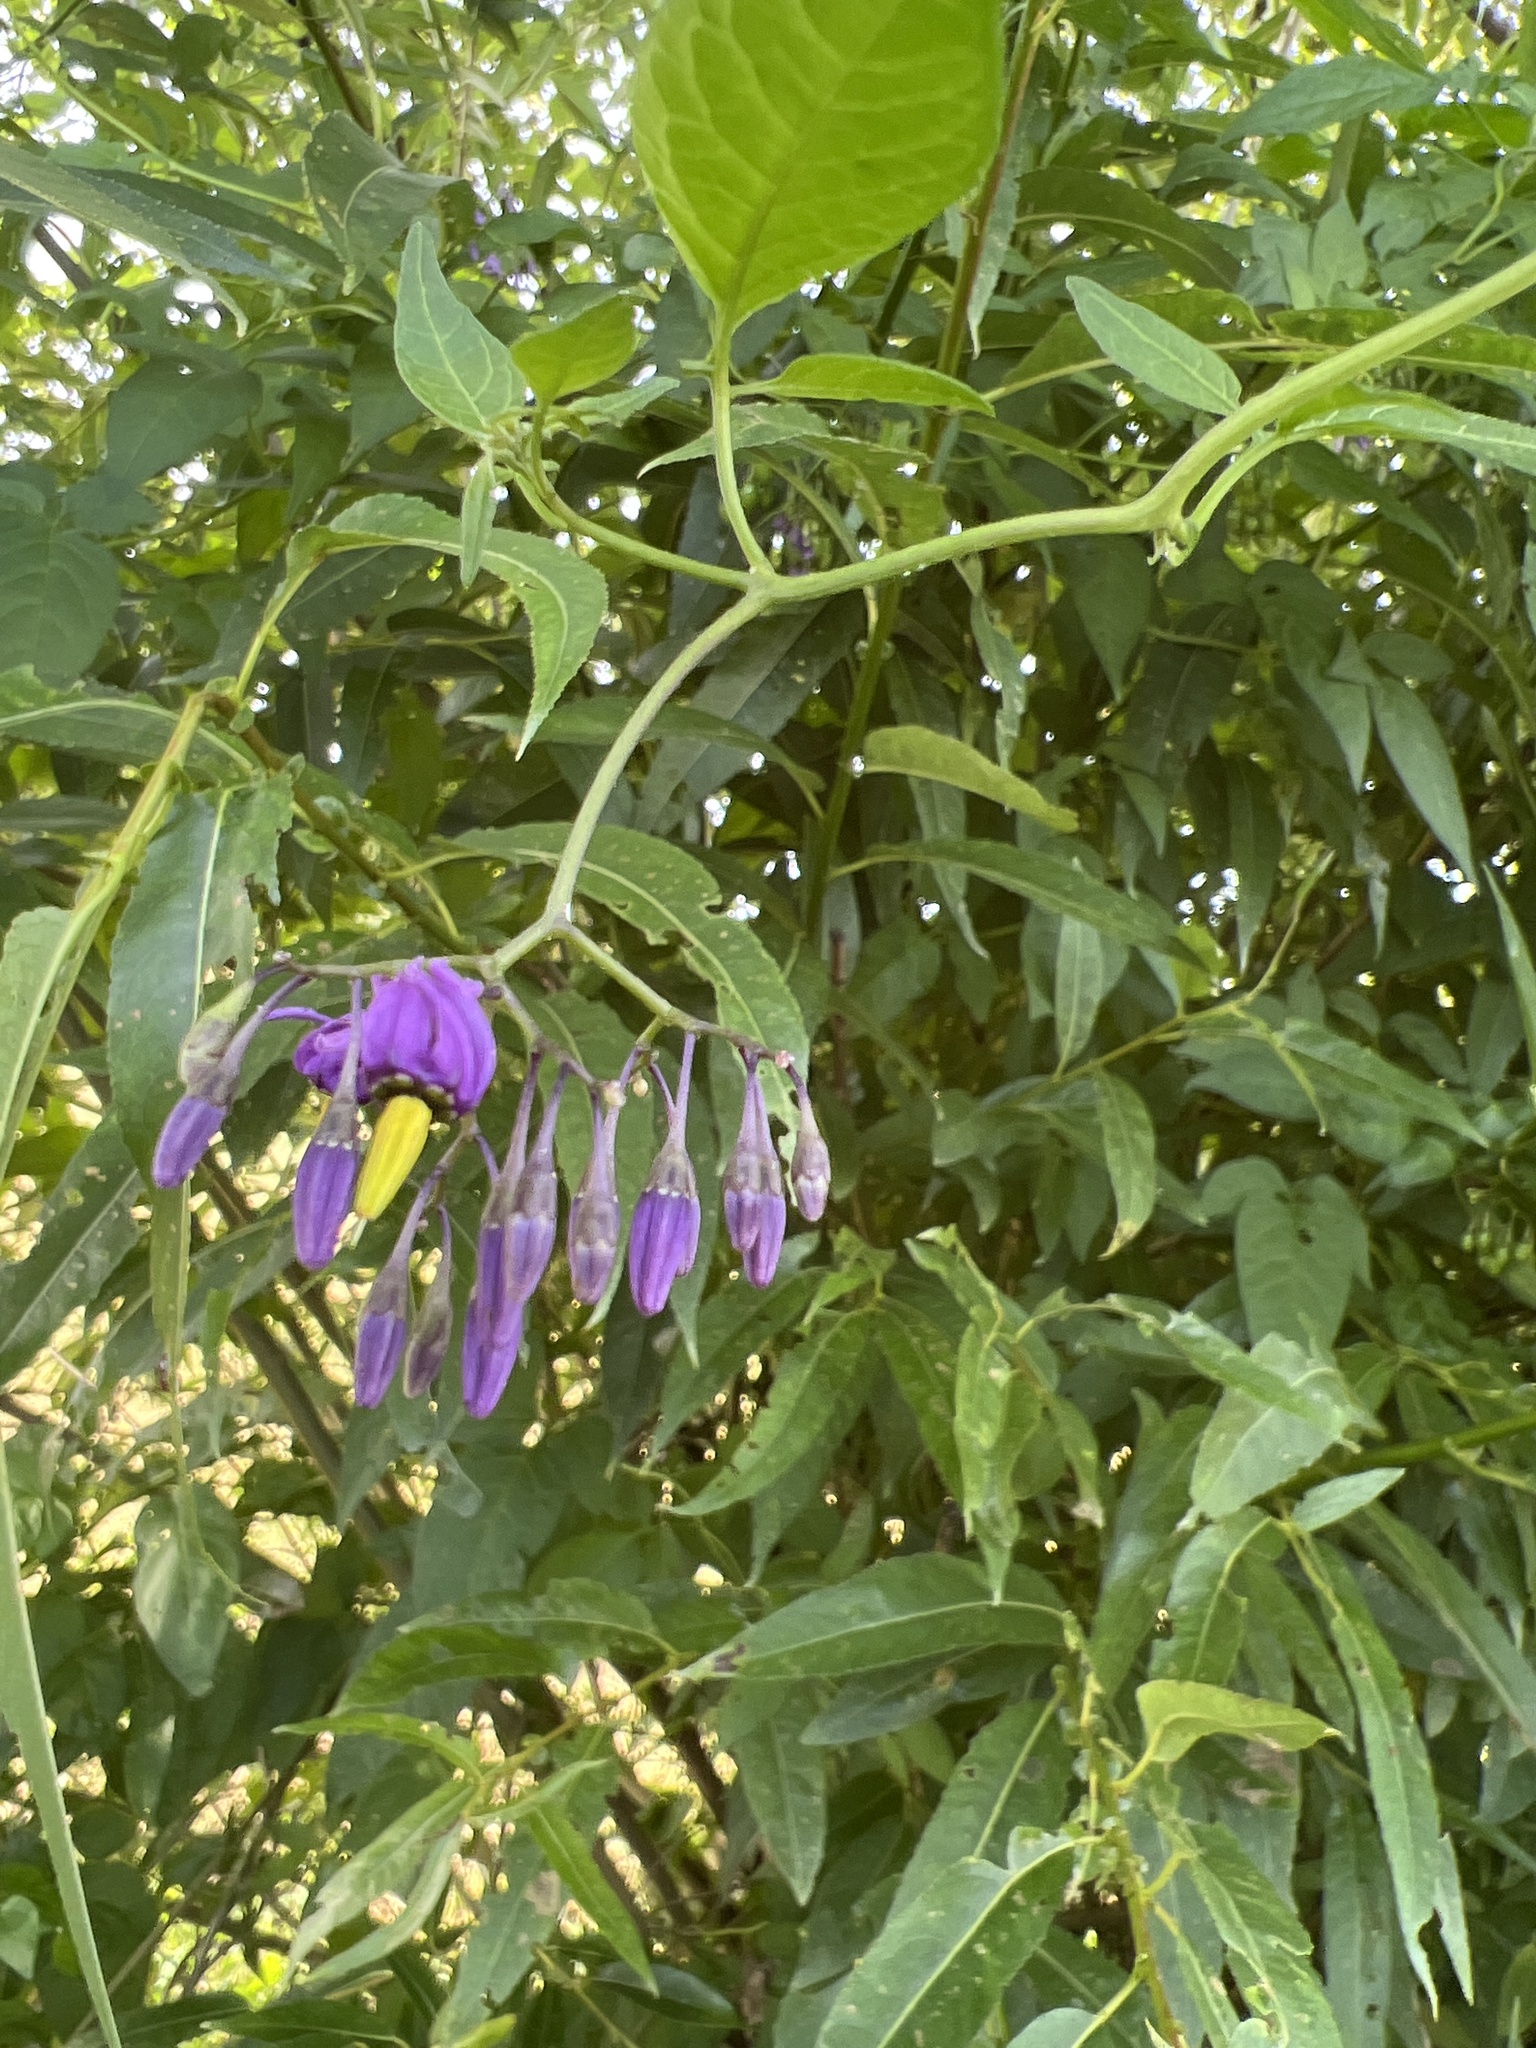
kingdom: Plantae
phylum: Tracheophyta
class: Magnoliopsida
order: Solanales
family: Solanaceae
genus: Solanum
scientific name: Solanum dulcamara
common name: Climbing nightshade
